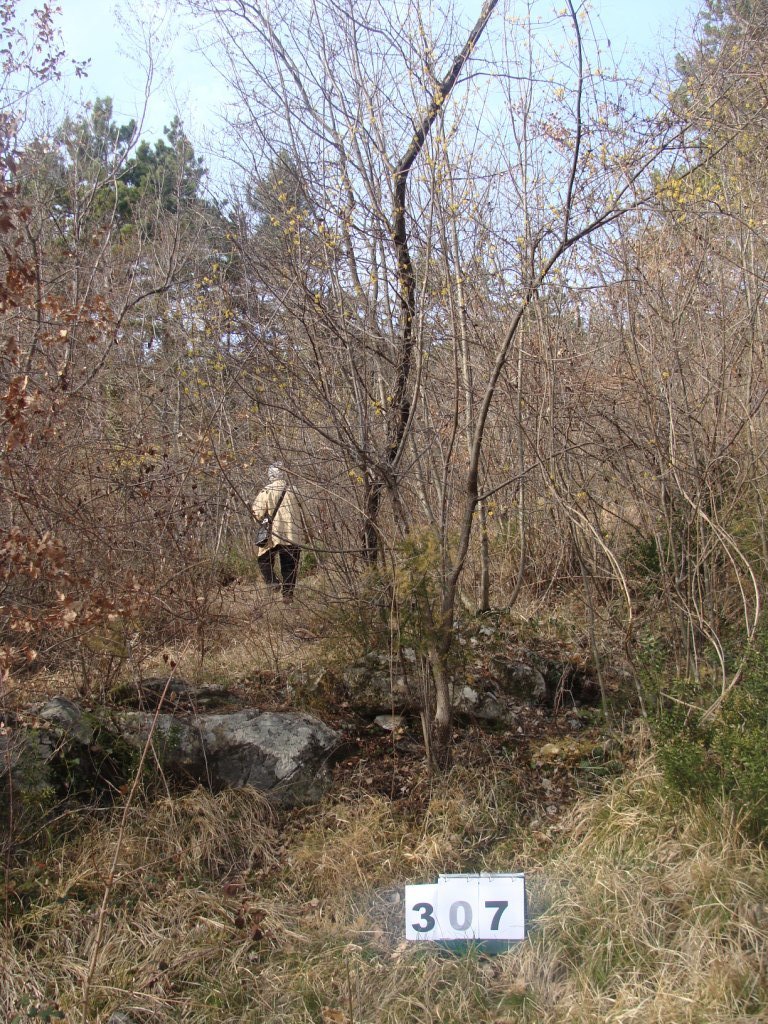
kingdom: Plantae
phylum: Tracheophyta
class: Magnoliopsida
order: Cornales
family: Cornaceae
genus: Cornus
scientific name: Cornus mas
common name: Cornelian-cherry
